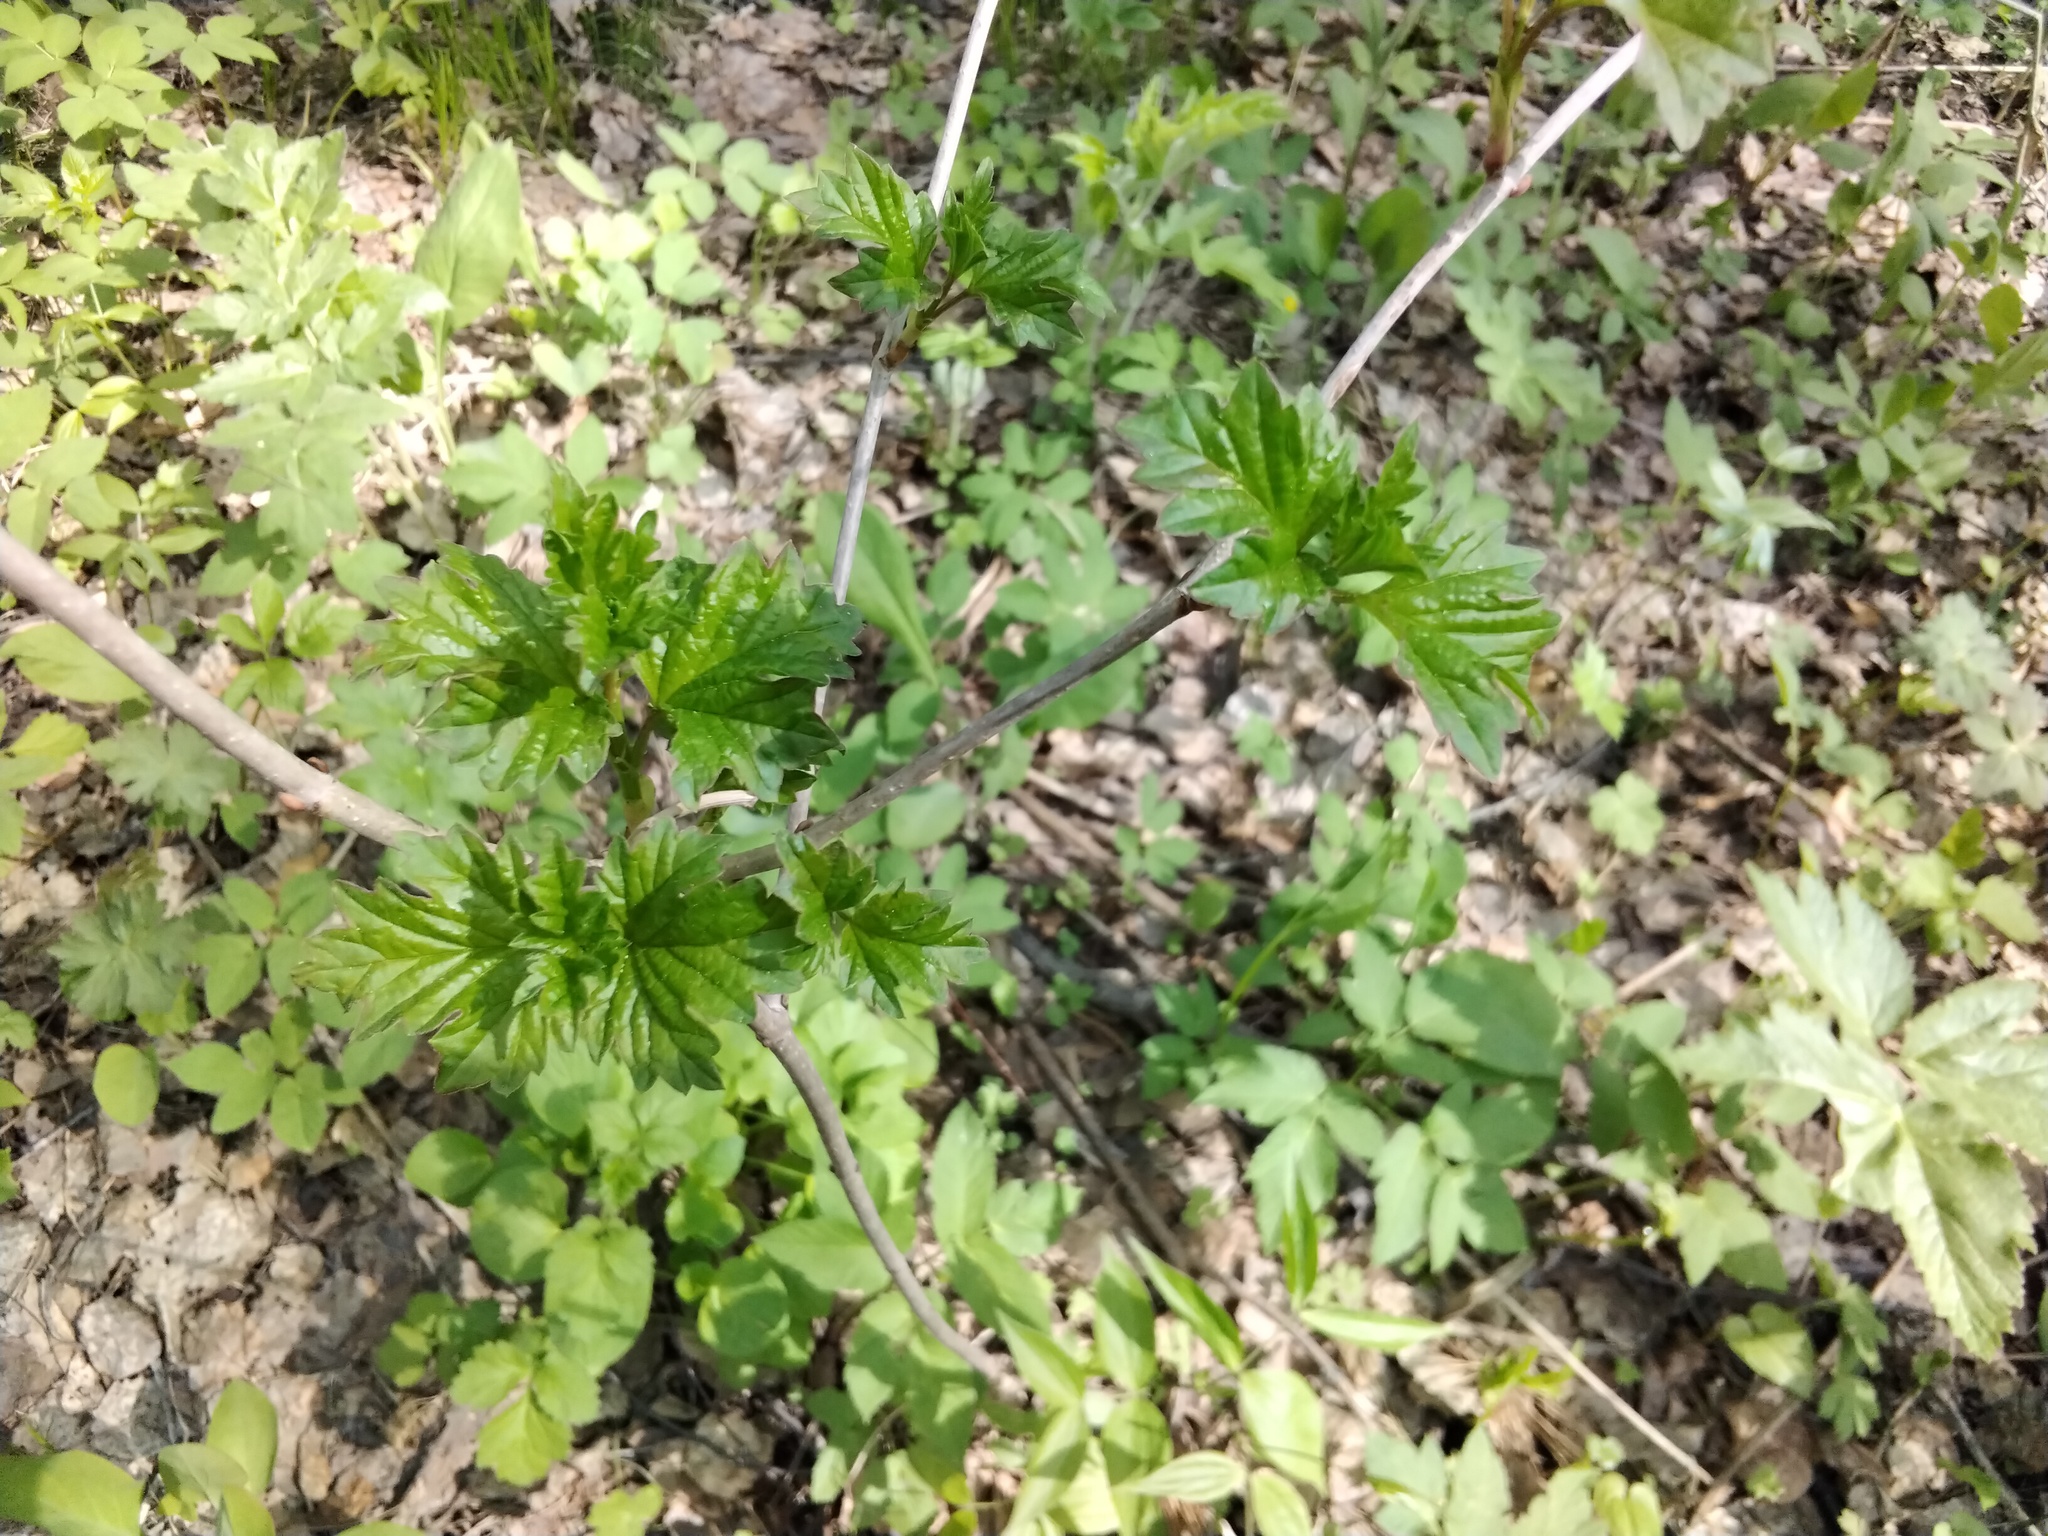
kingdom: Plantae
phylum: Tracheophyta
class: Magnoliopsida
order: Dipsacales
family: Viburnaceae
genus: Viburnum
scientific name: Viburnum opulus
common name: Guelder-rose
